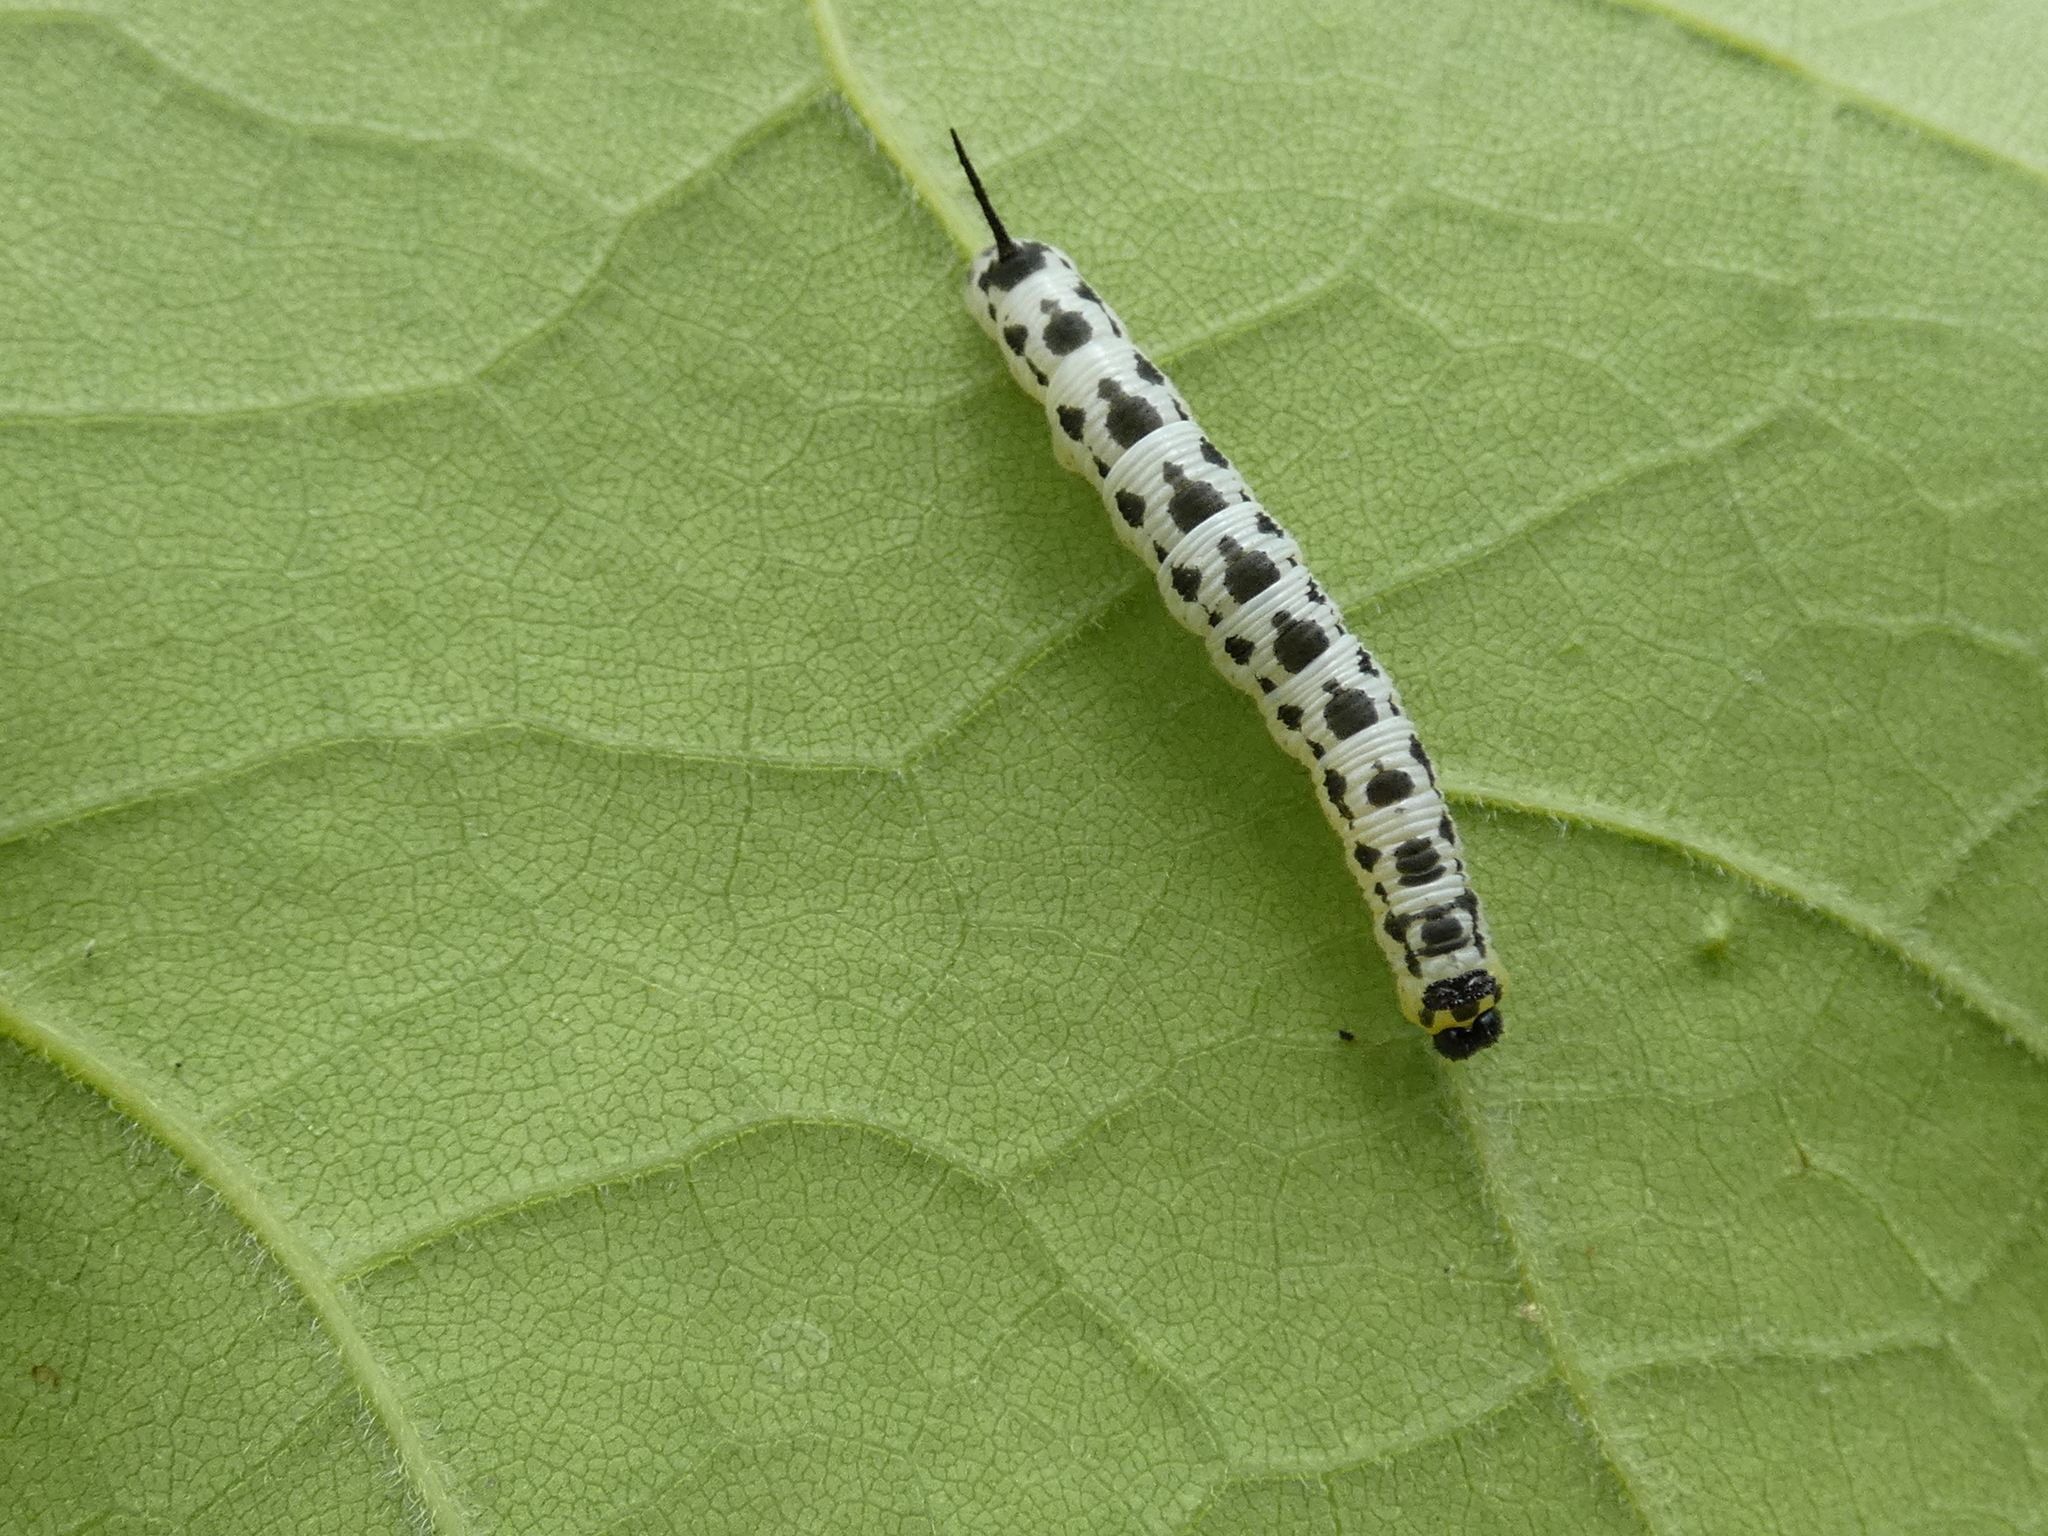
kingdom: Animalia
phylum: Arthropoda
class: Insecta
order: Lepidoptera
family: Sphingidae
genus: Ceratomia
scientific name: Ceratomia catalpae
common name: Catalpa hornworm
